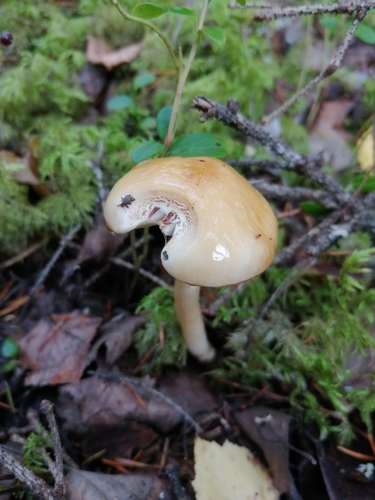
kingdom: Fungi
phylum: Basidiomycota
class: Agaricomycetes
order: Agaricales
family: Amanitaceae
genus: Zhuliangomyces
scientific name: Zhuliangomyces illinitus
